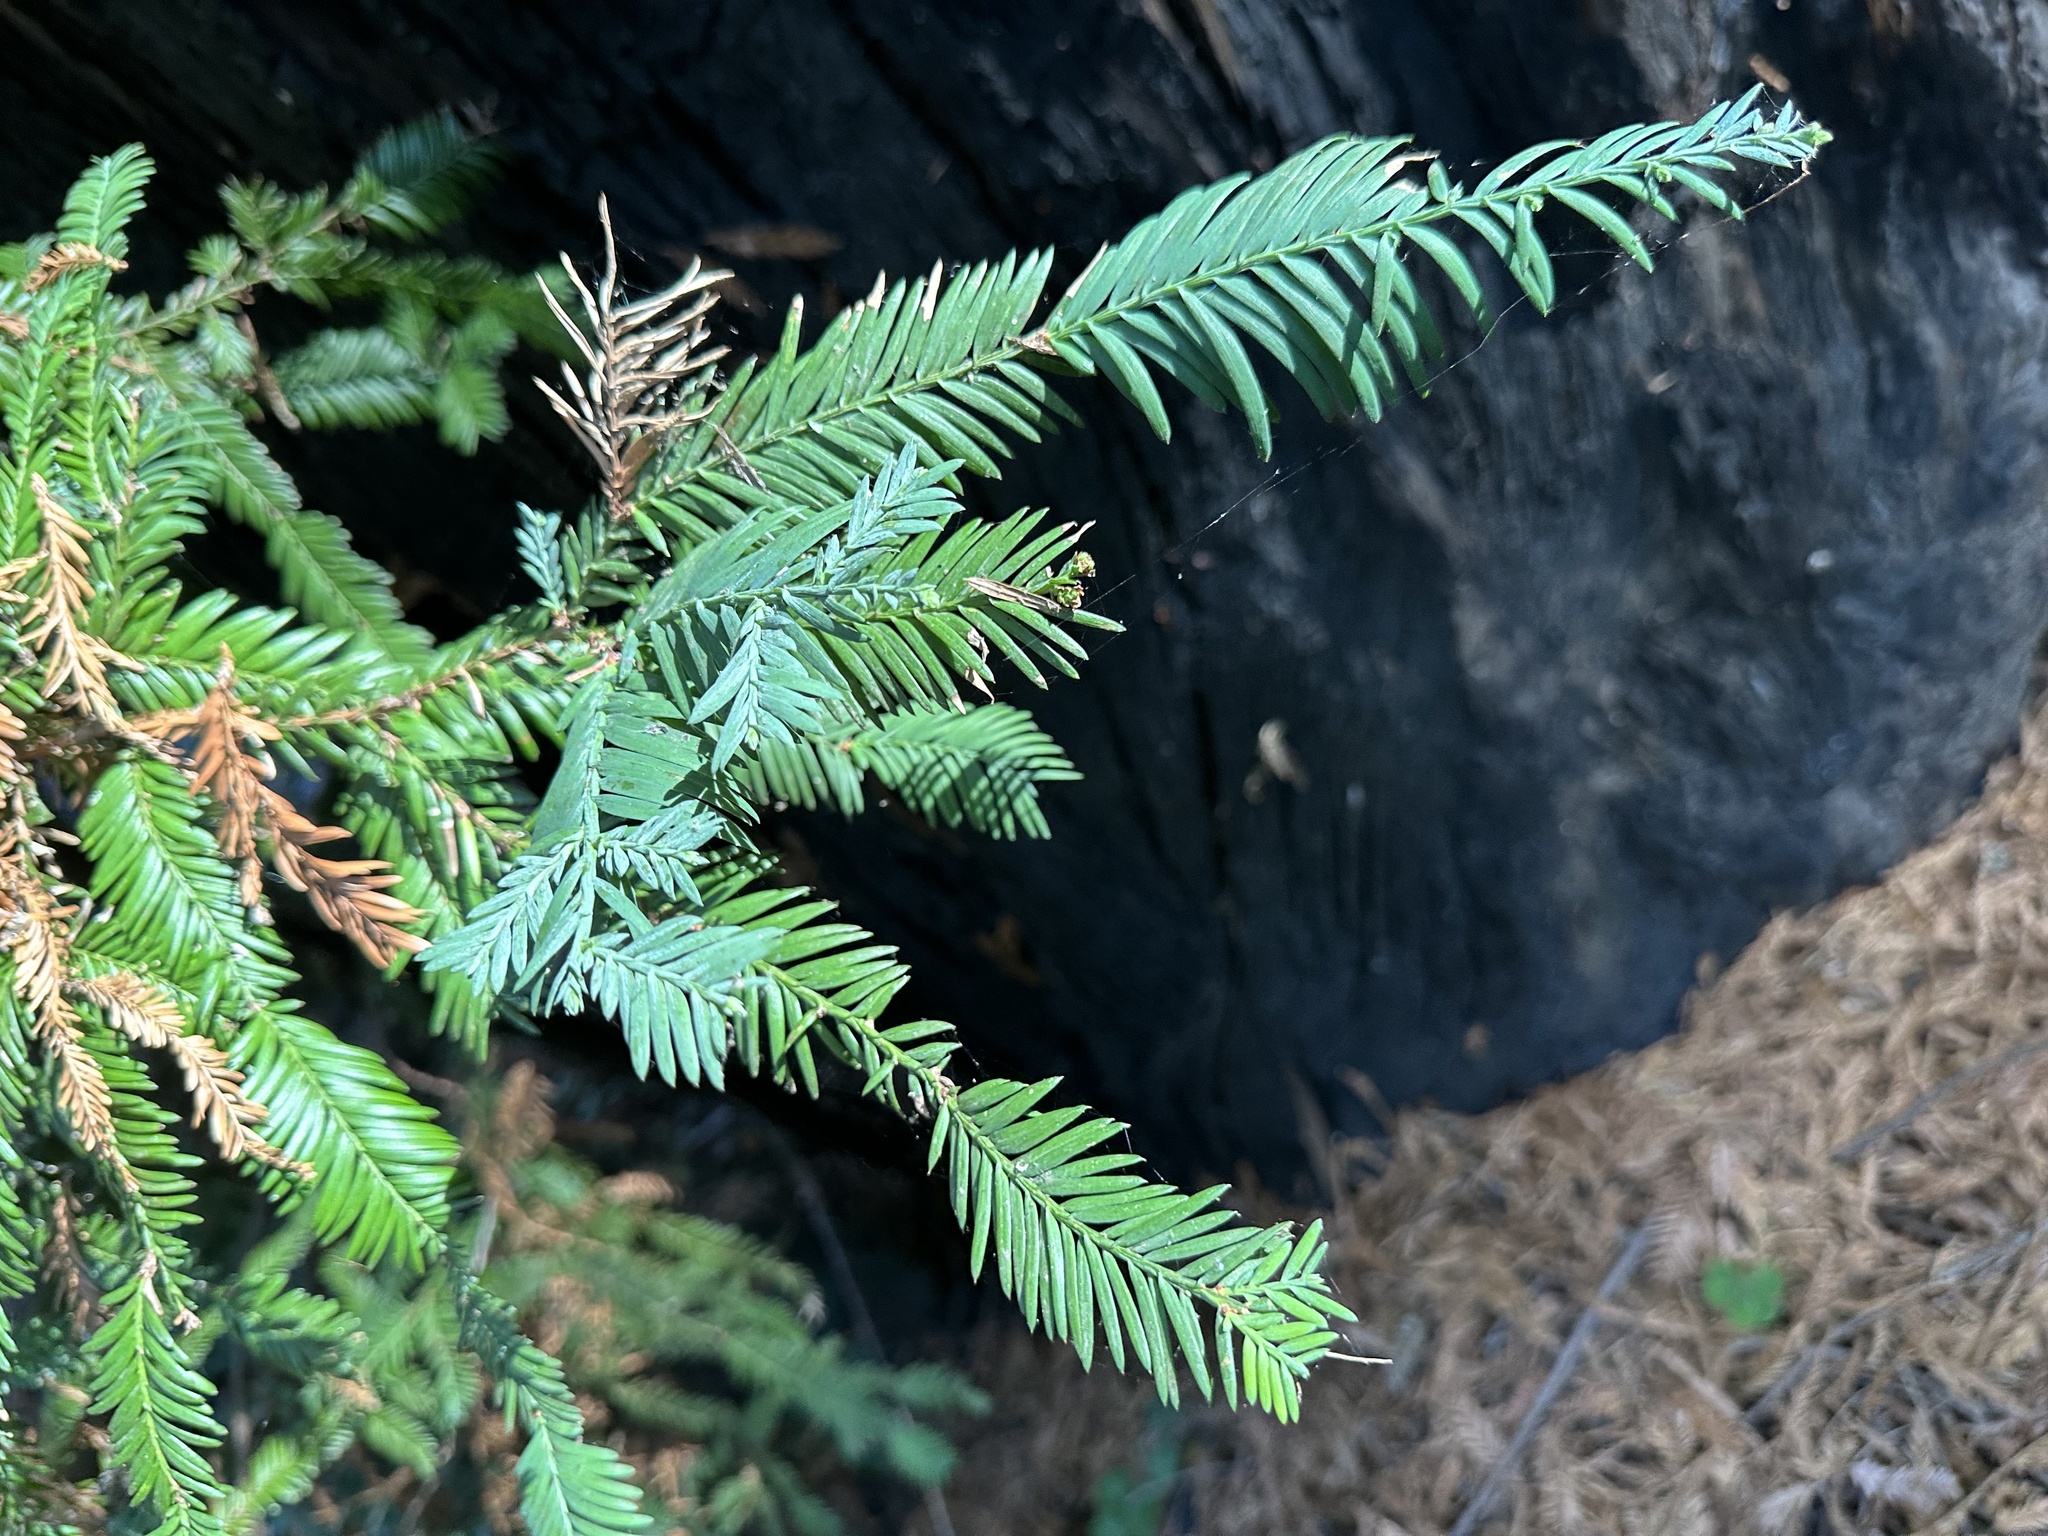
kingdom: Plantae
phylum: Tracheophyta
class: Pinopsida
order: Pinales
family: Cupressaceae
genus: Sequoia
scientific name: Sequoia sempervirens
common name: Coast redwood
